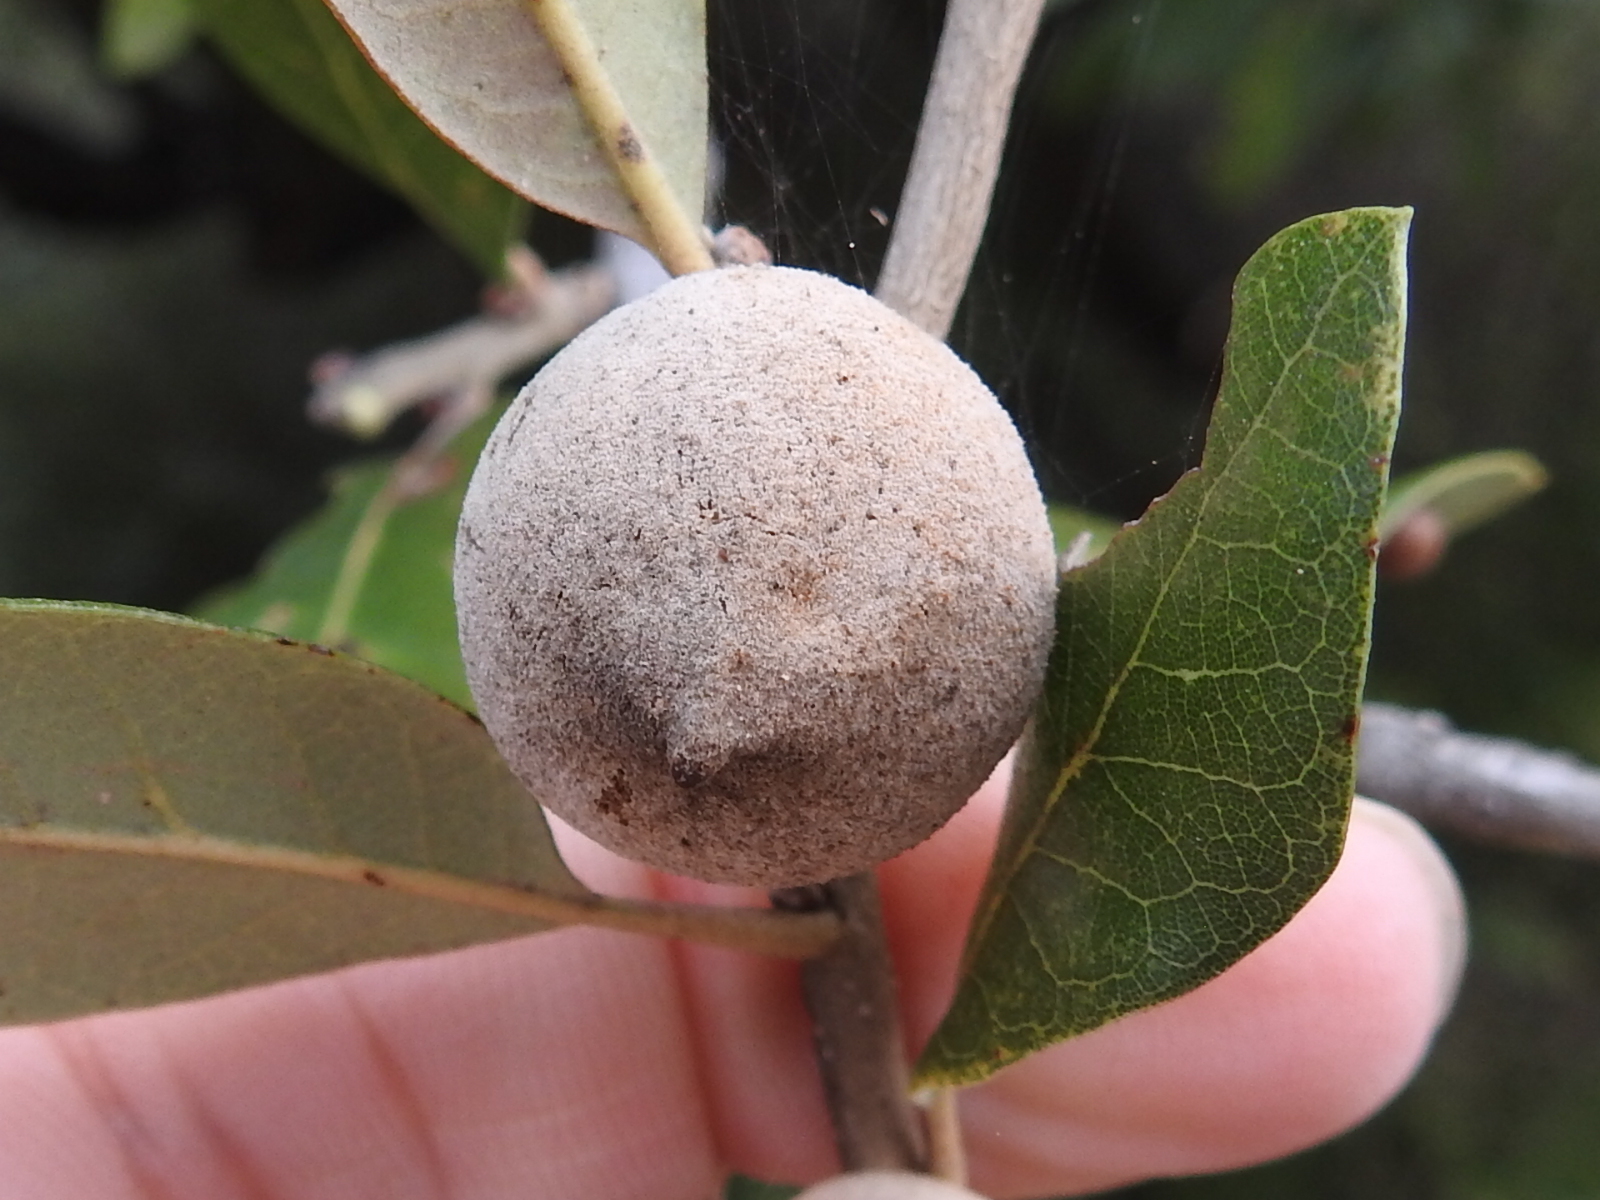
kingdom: Animalia
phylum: Arthropoda
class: Insecta
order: Hymenoptera
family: Cynipidae
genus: Disholcaspis
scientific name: Disholcaspis
